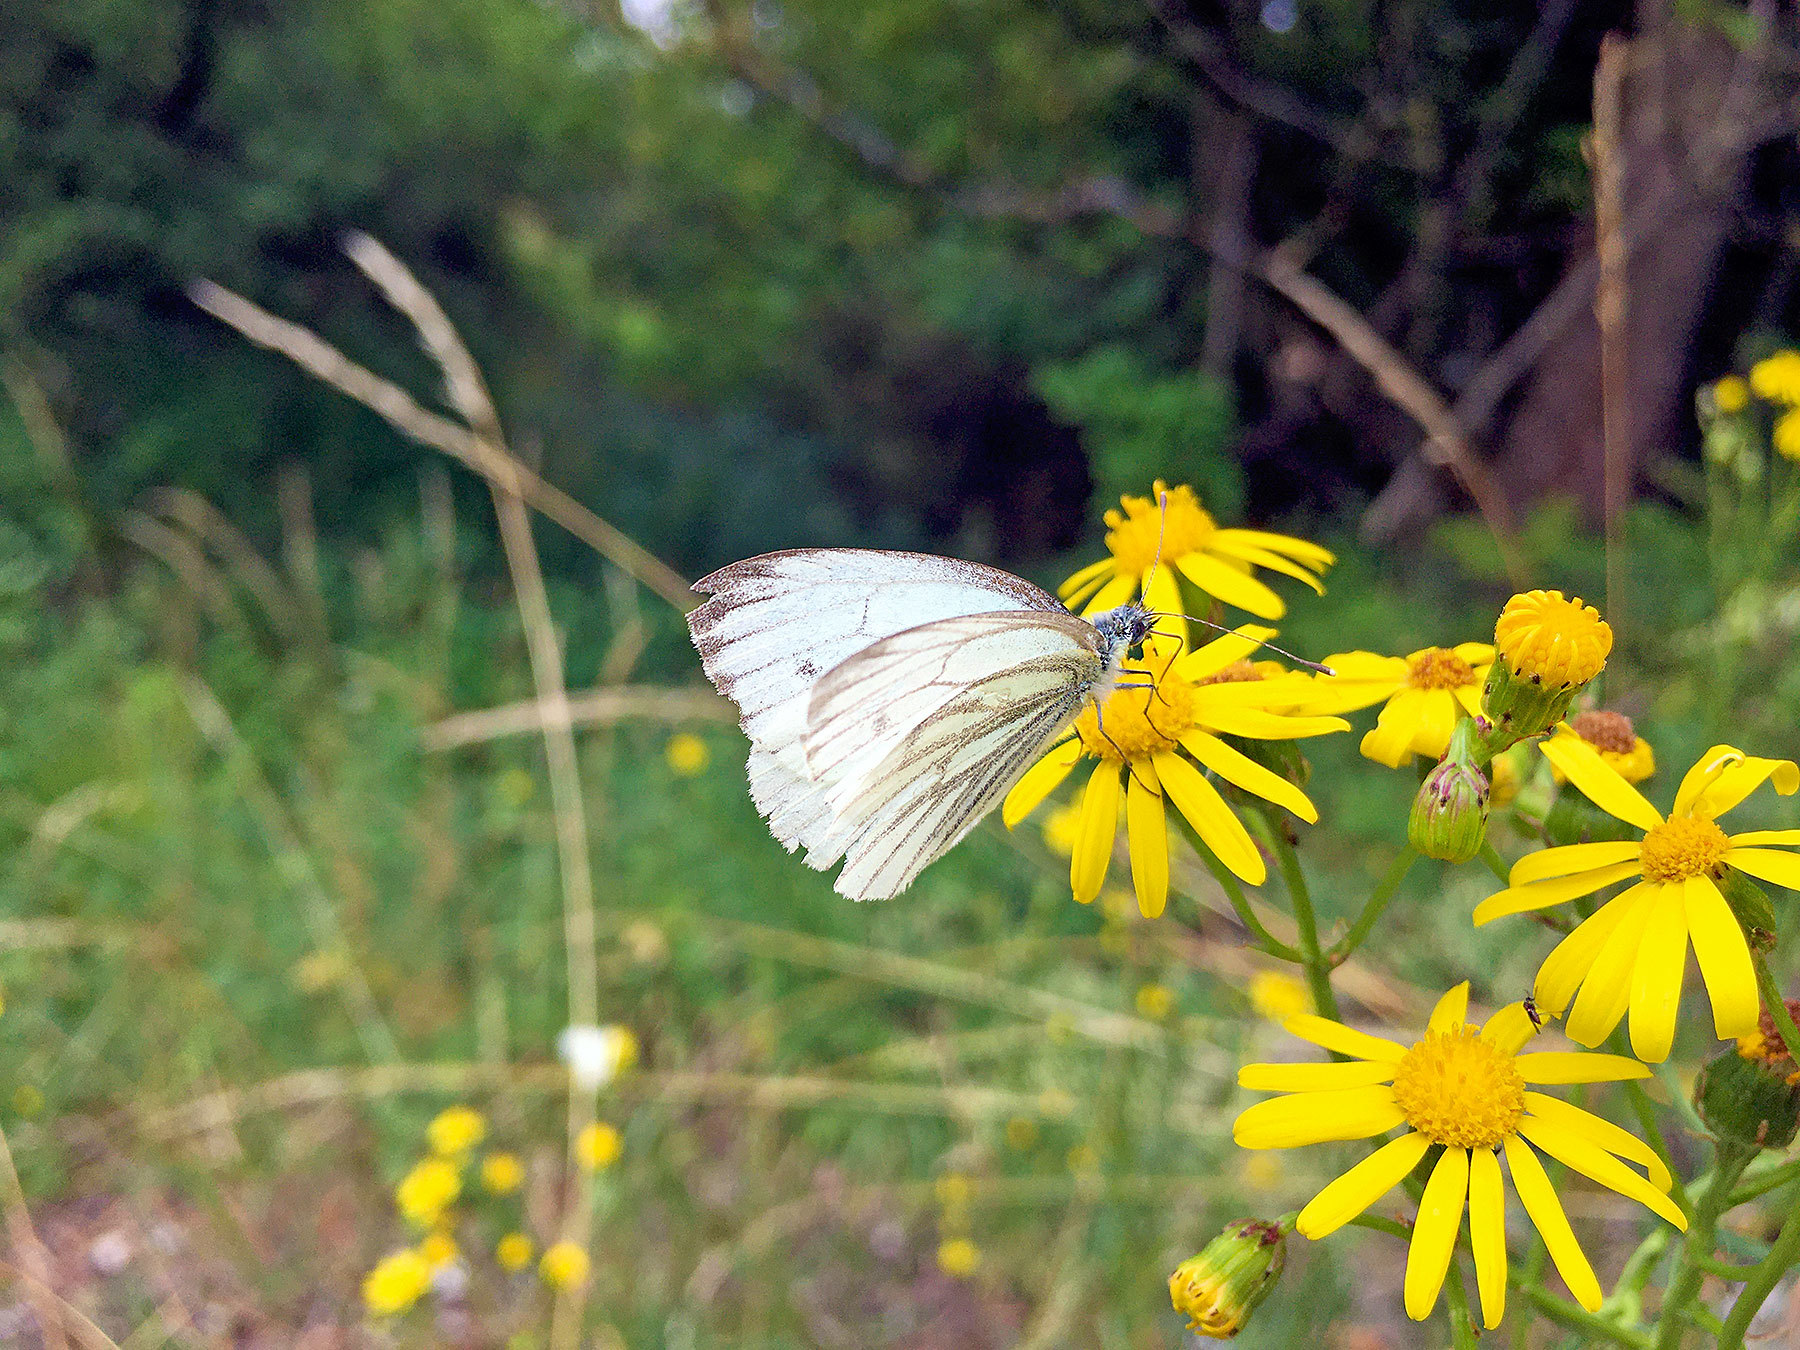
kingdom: Animalia
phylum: Arthropoda
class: Insecta
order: Lepidoptera
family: Pieridae
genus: Pieris
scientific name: Pieris napi
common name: Green-veined white
